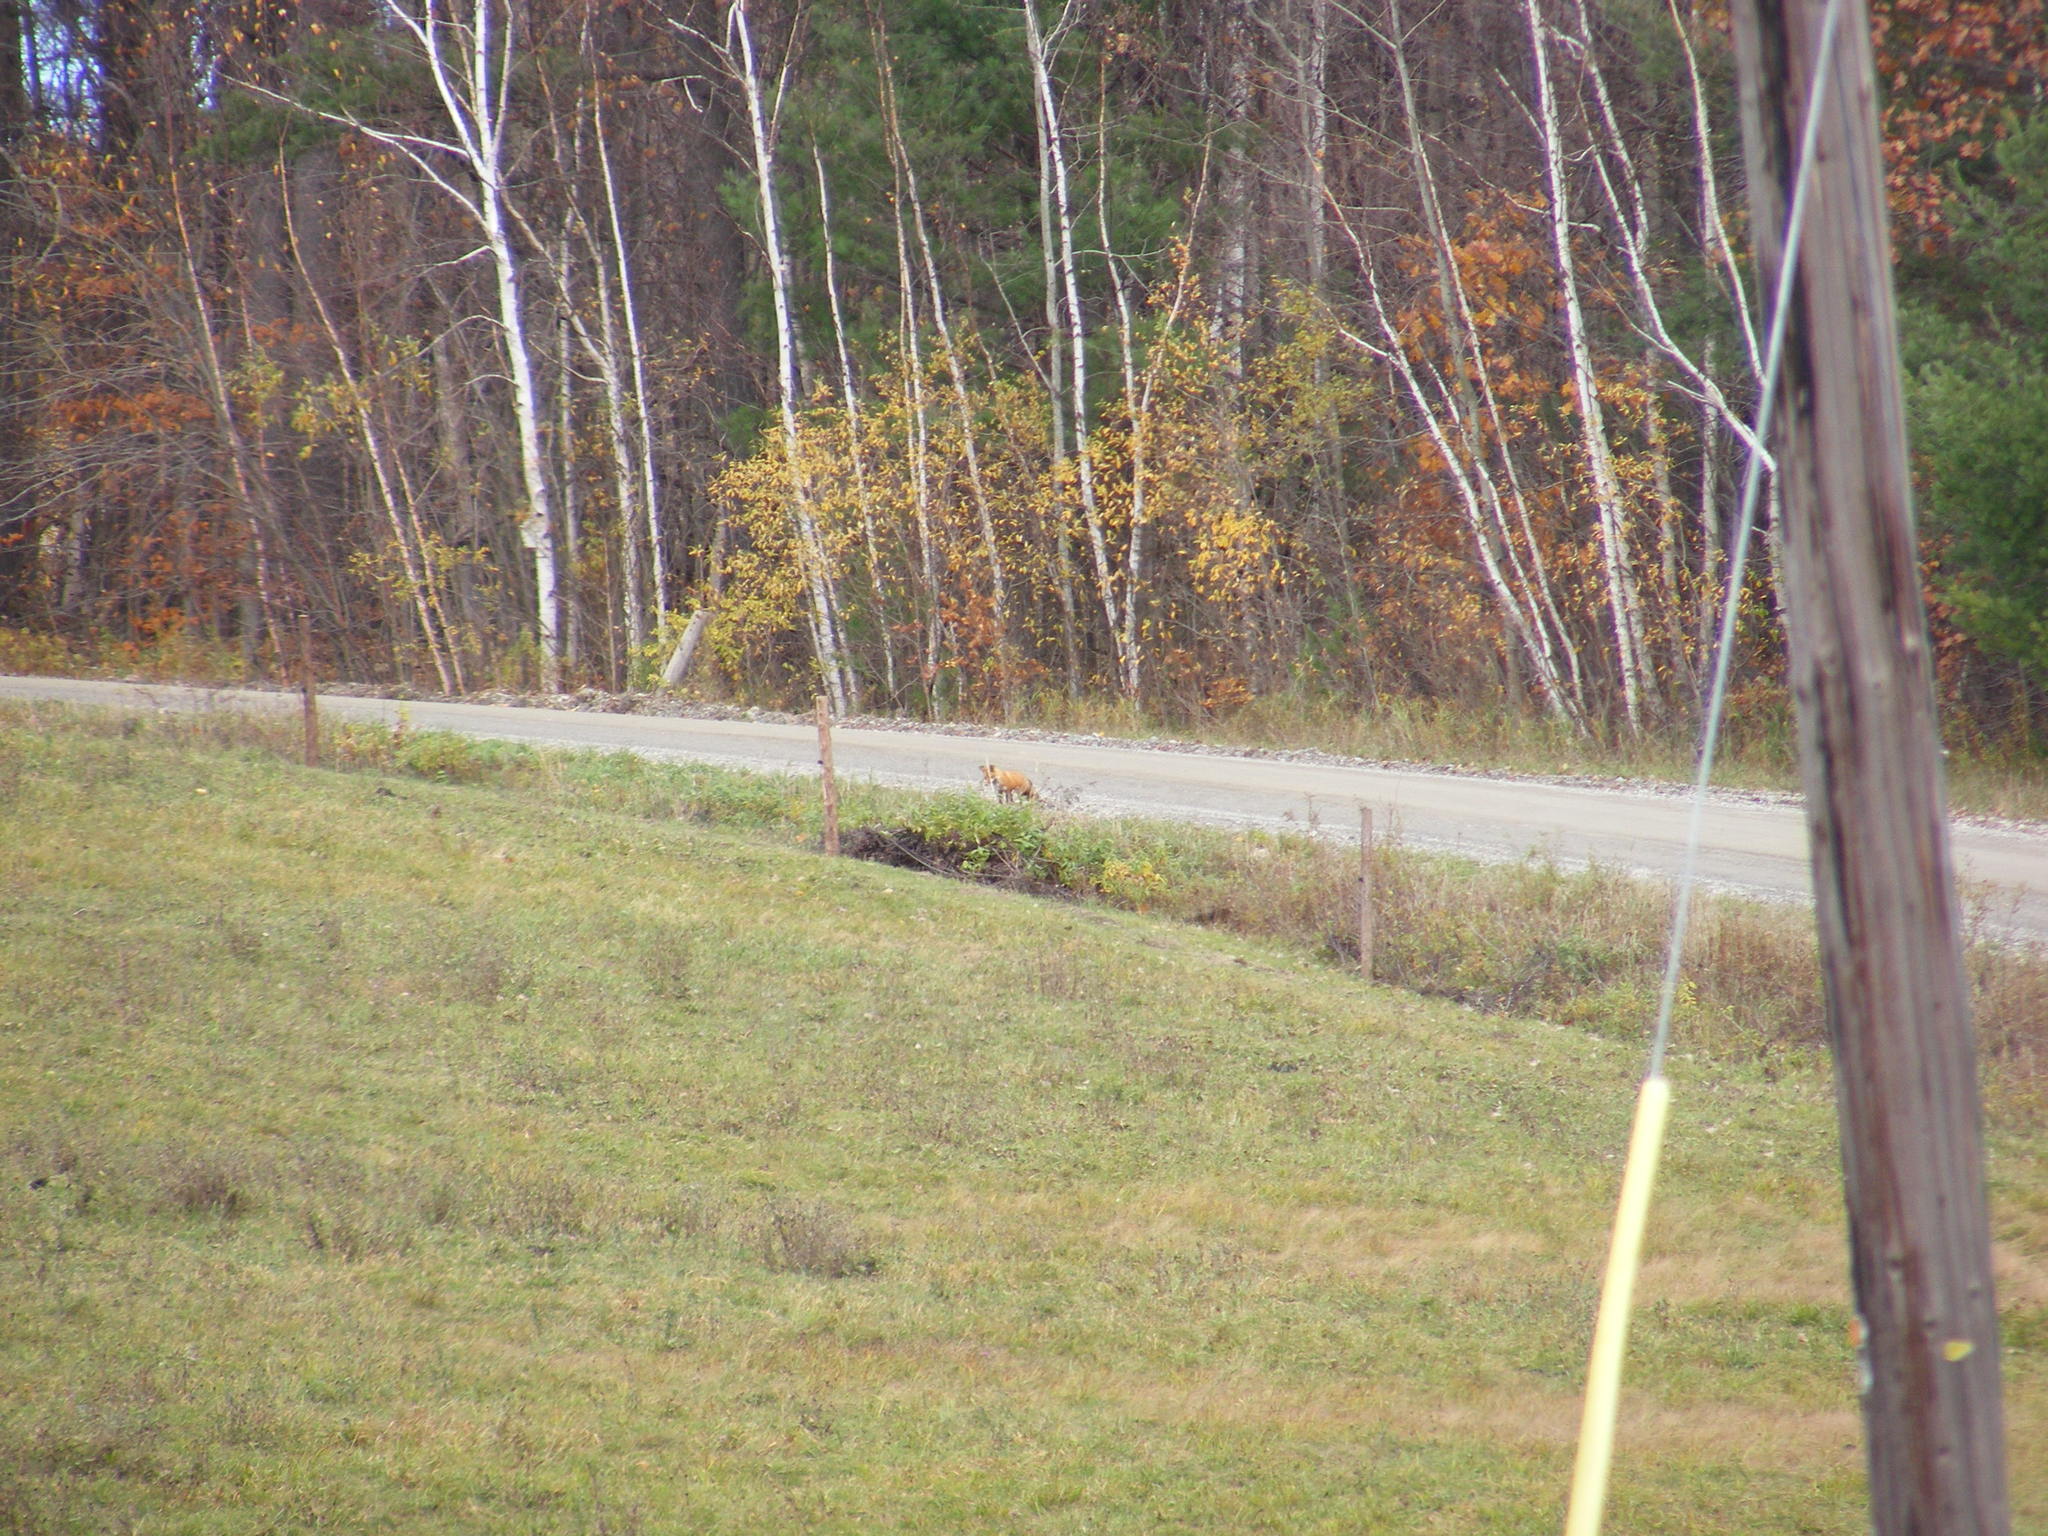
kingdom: Animalia
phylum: Chordata
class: Mammalia
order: Carnivora
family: Canidae
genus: Vulpes
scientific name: Vulpes vulpes
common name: Red fox
